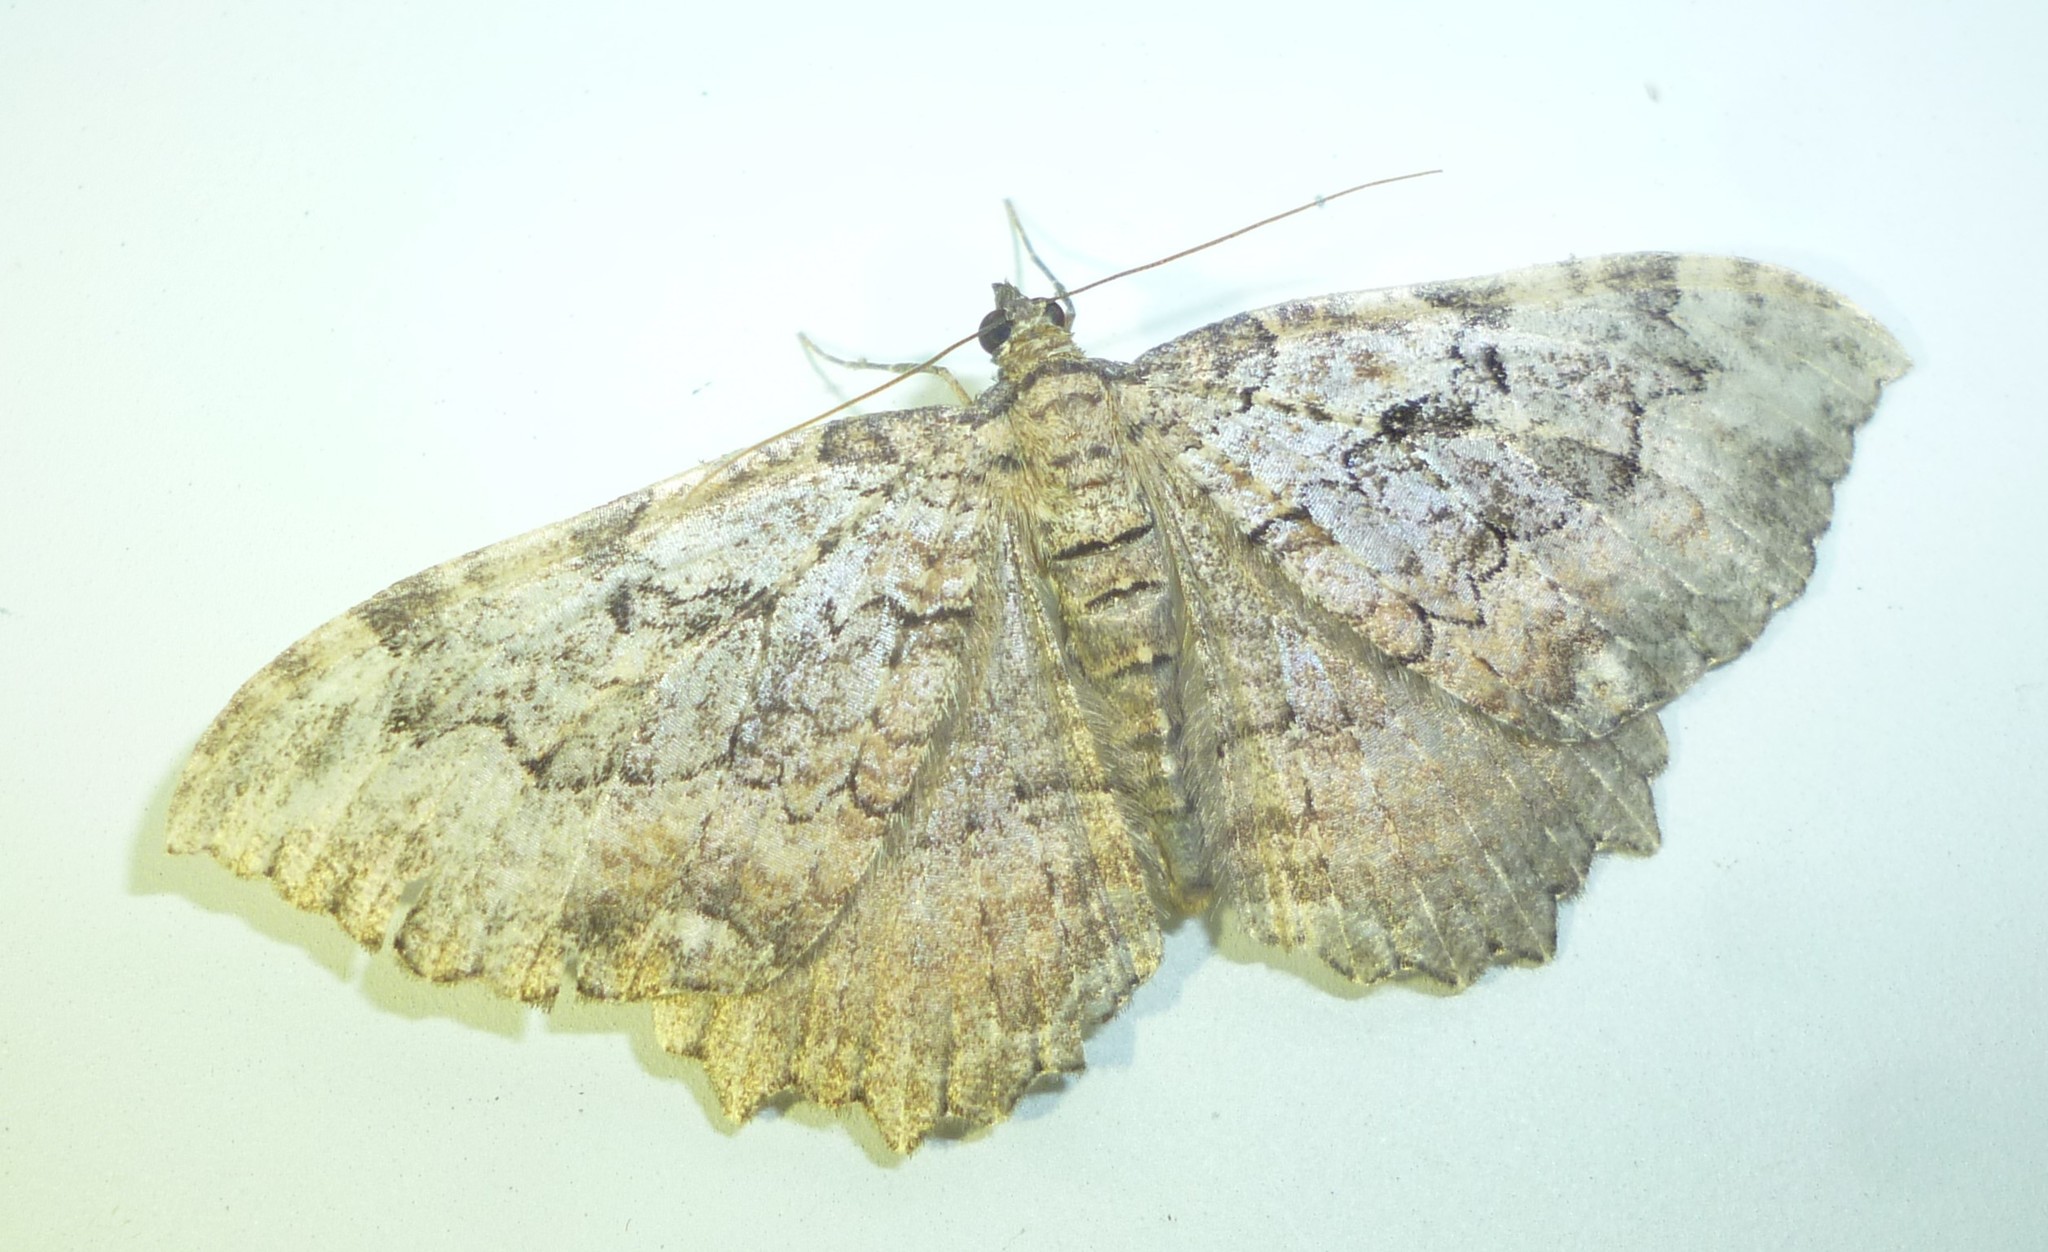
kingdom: Animalia
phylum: Arthropoda
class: Insecta
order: Lepidoptera
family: Geometridae
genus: Rheumaptera
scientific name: Rheumaptera
